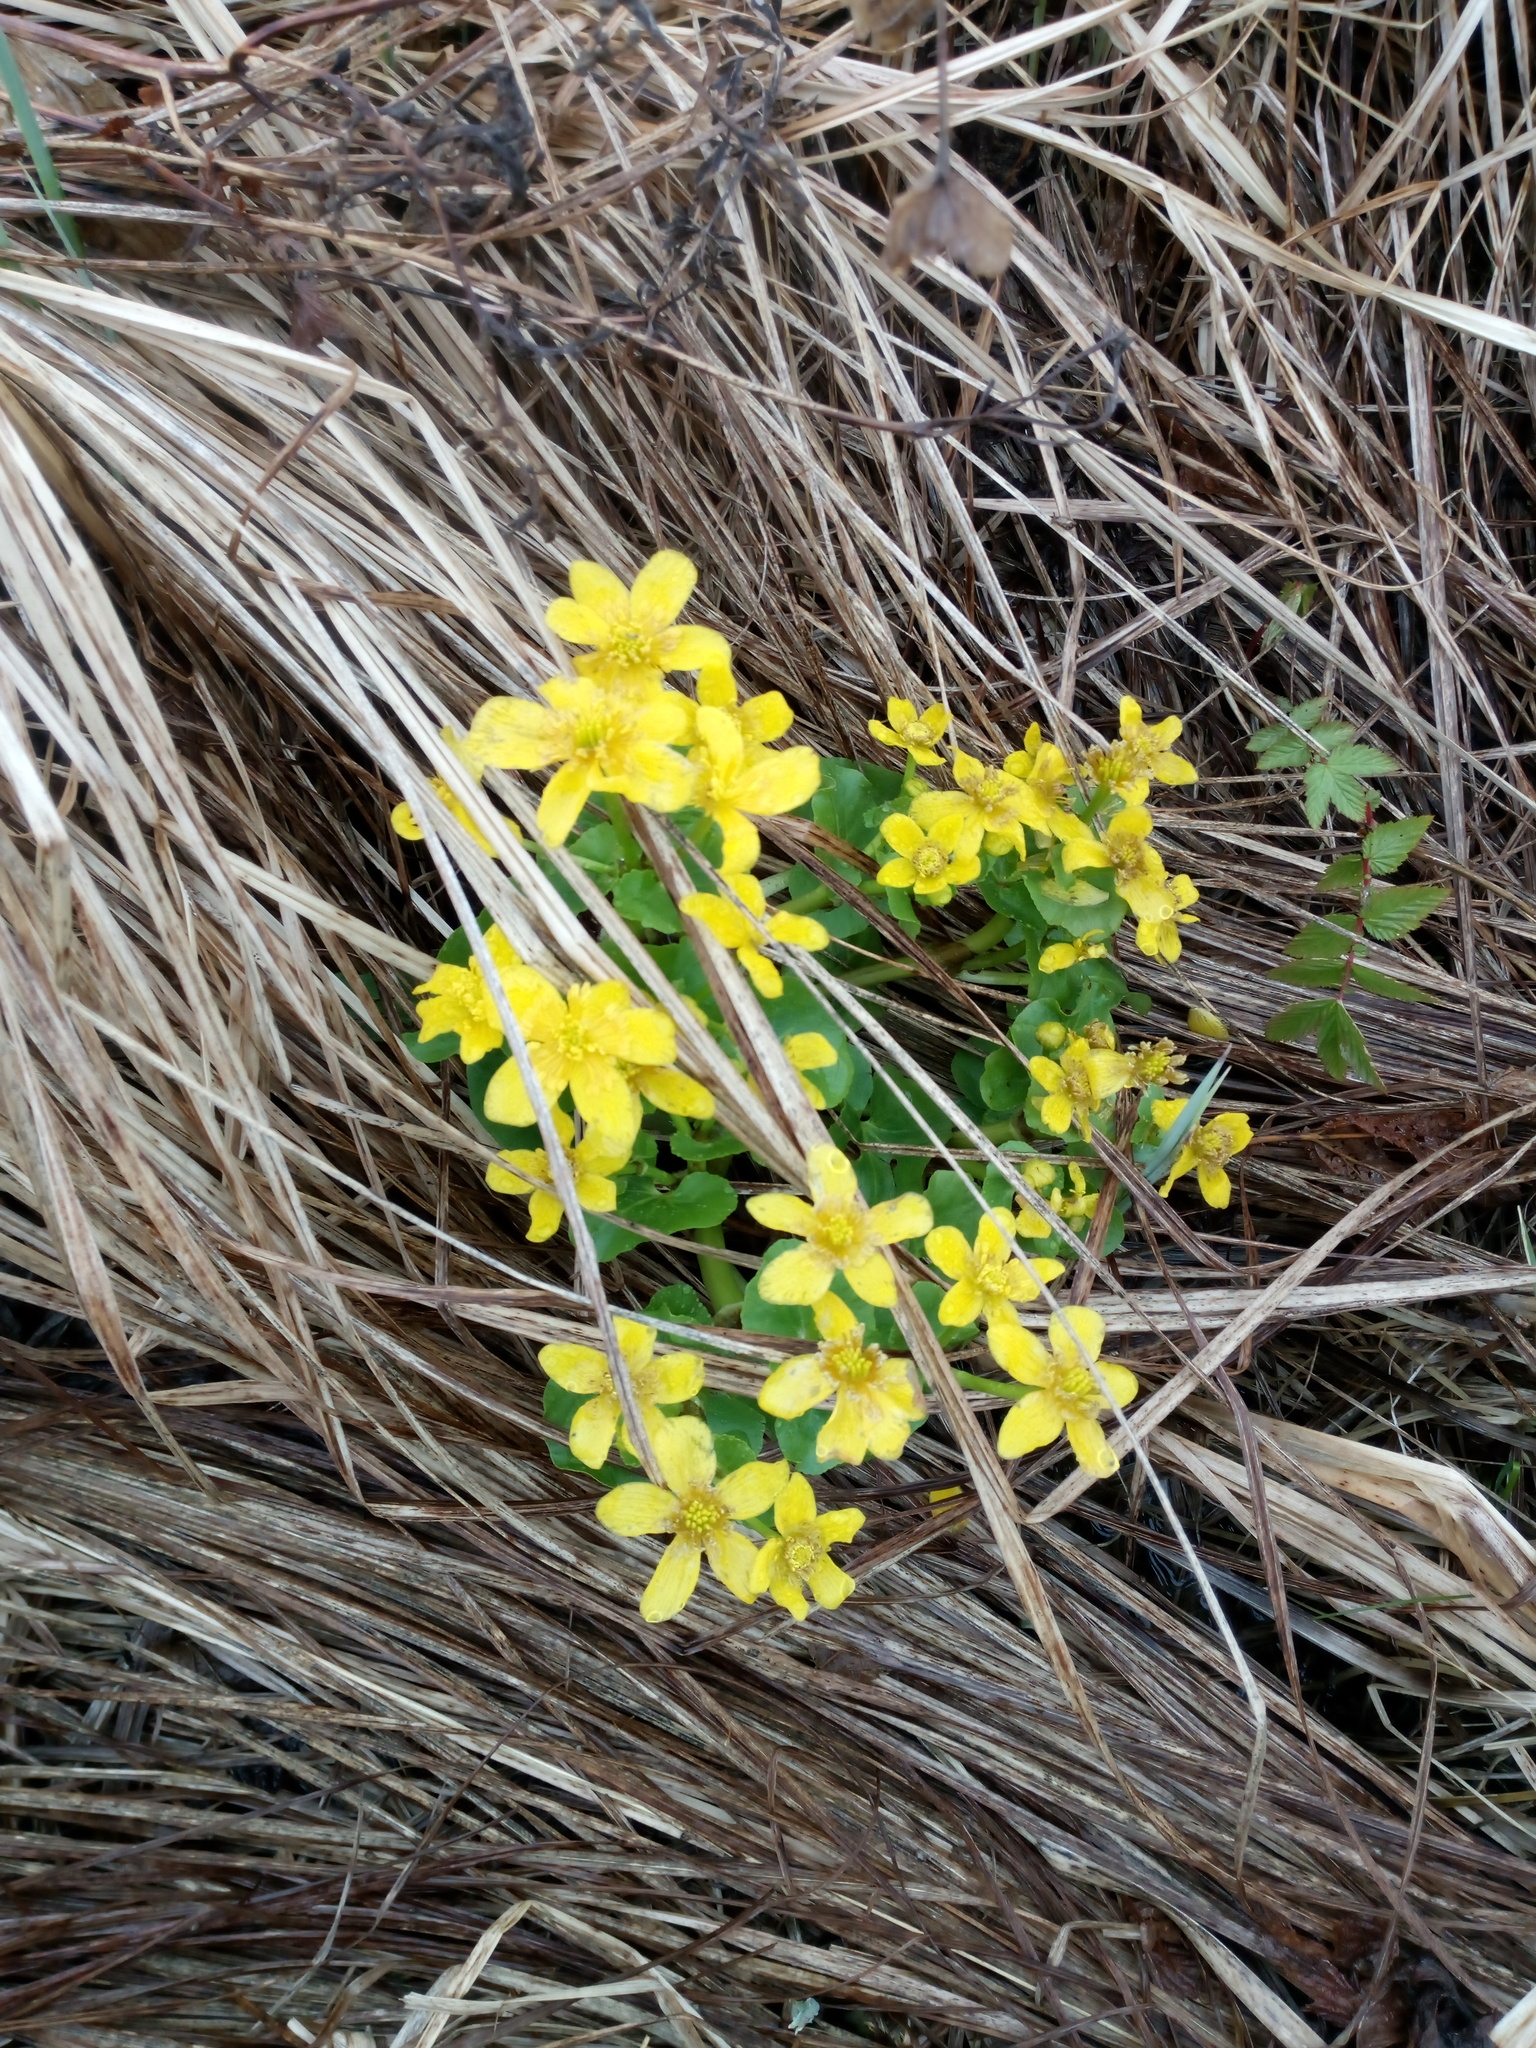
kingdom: Plantae
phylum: Tracheophyta
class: Magnoliopsida
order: Ranunculales
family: Ranunculaceae
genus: Caltha
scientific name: Caltha palustris
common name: Marsh marigold
